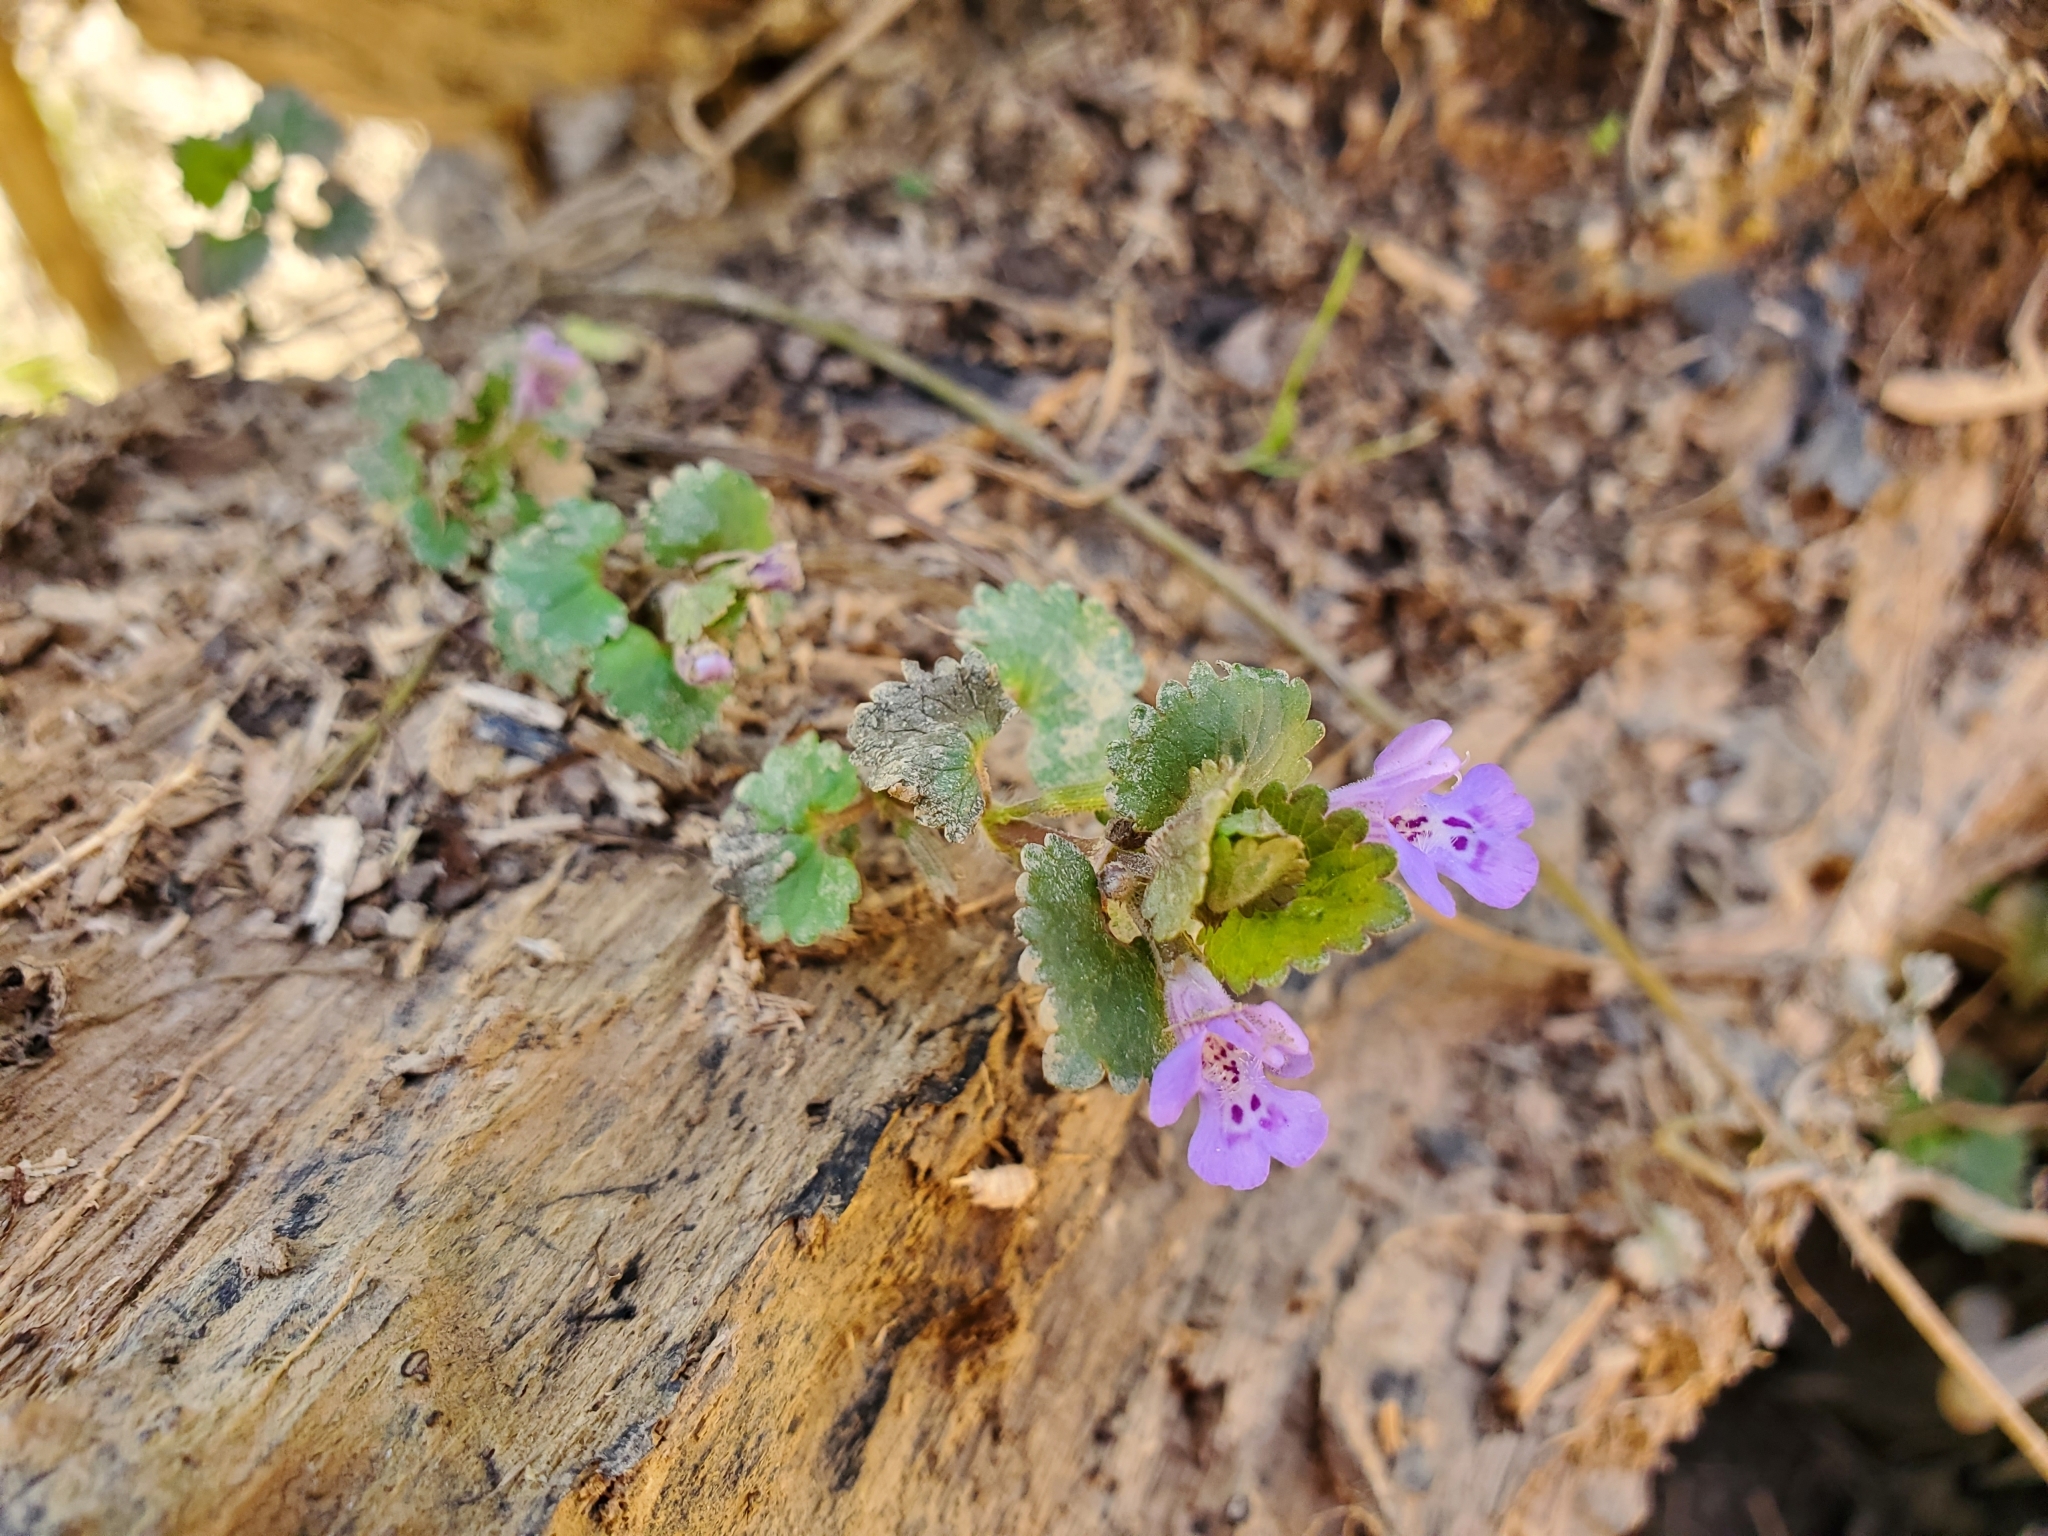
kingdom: Plantae
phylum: Tracheophyta
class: Magnoliopsida
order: Lamiales
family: Lamiaceae
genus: Glechoma
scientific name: Glechoma hederacea
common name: Ground ivy
